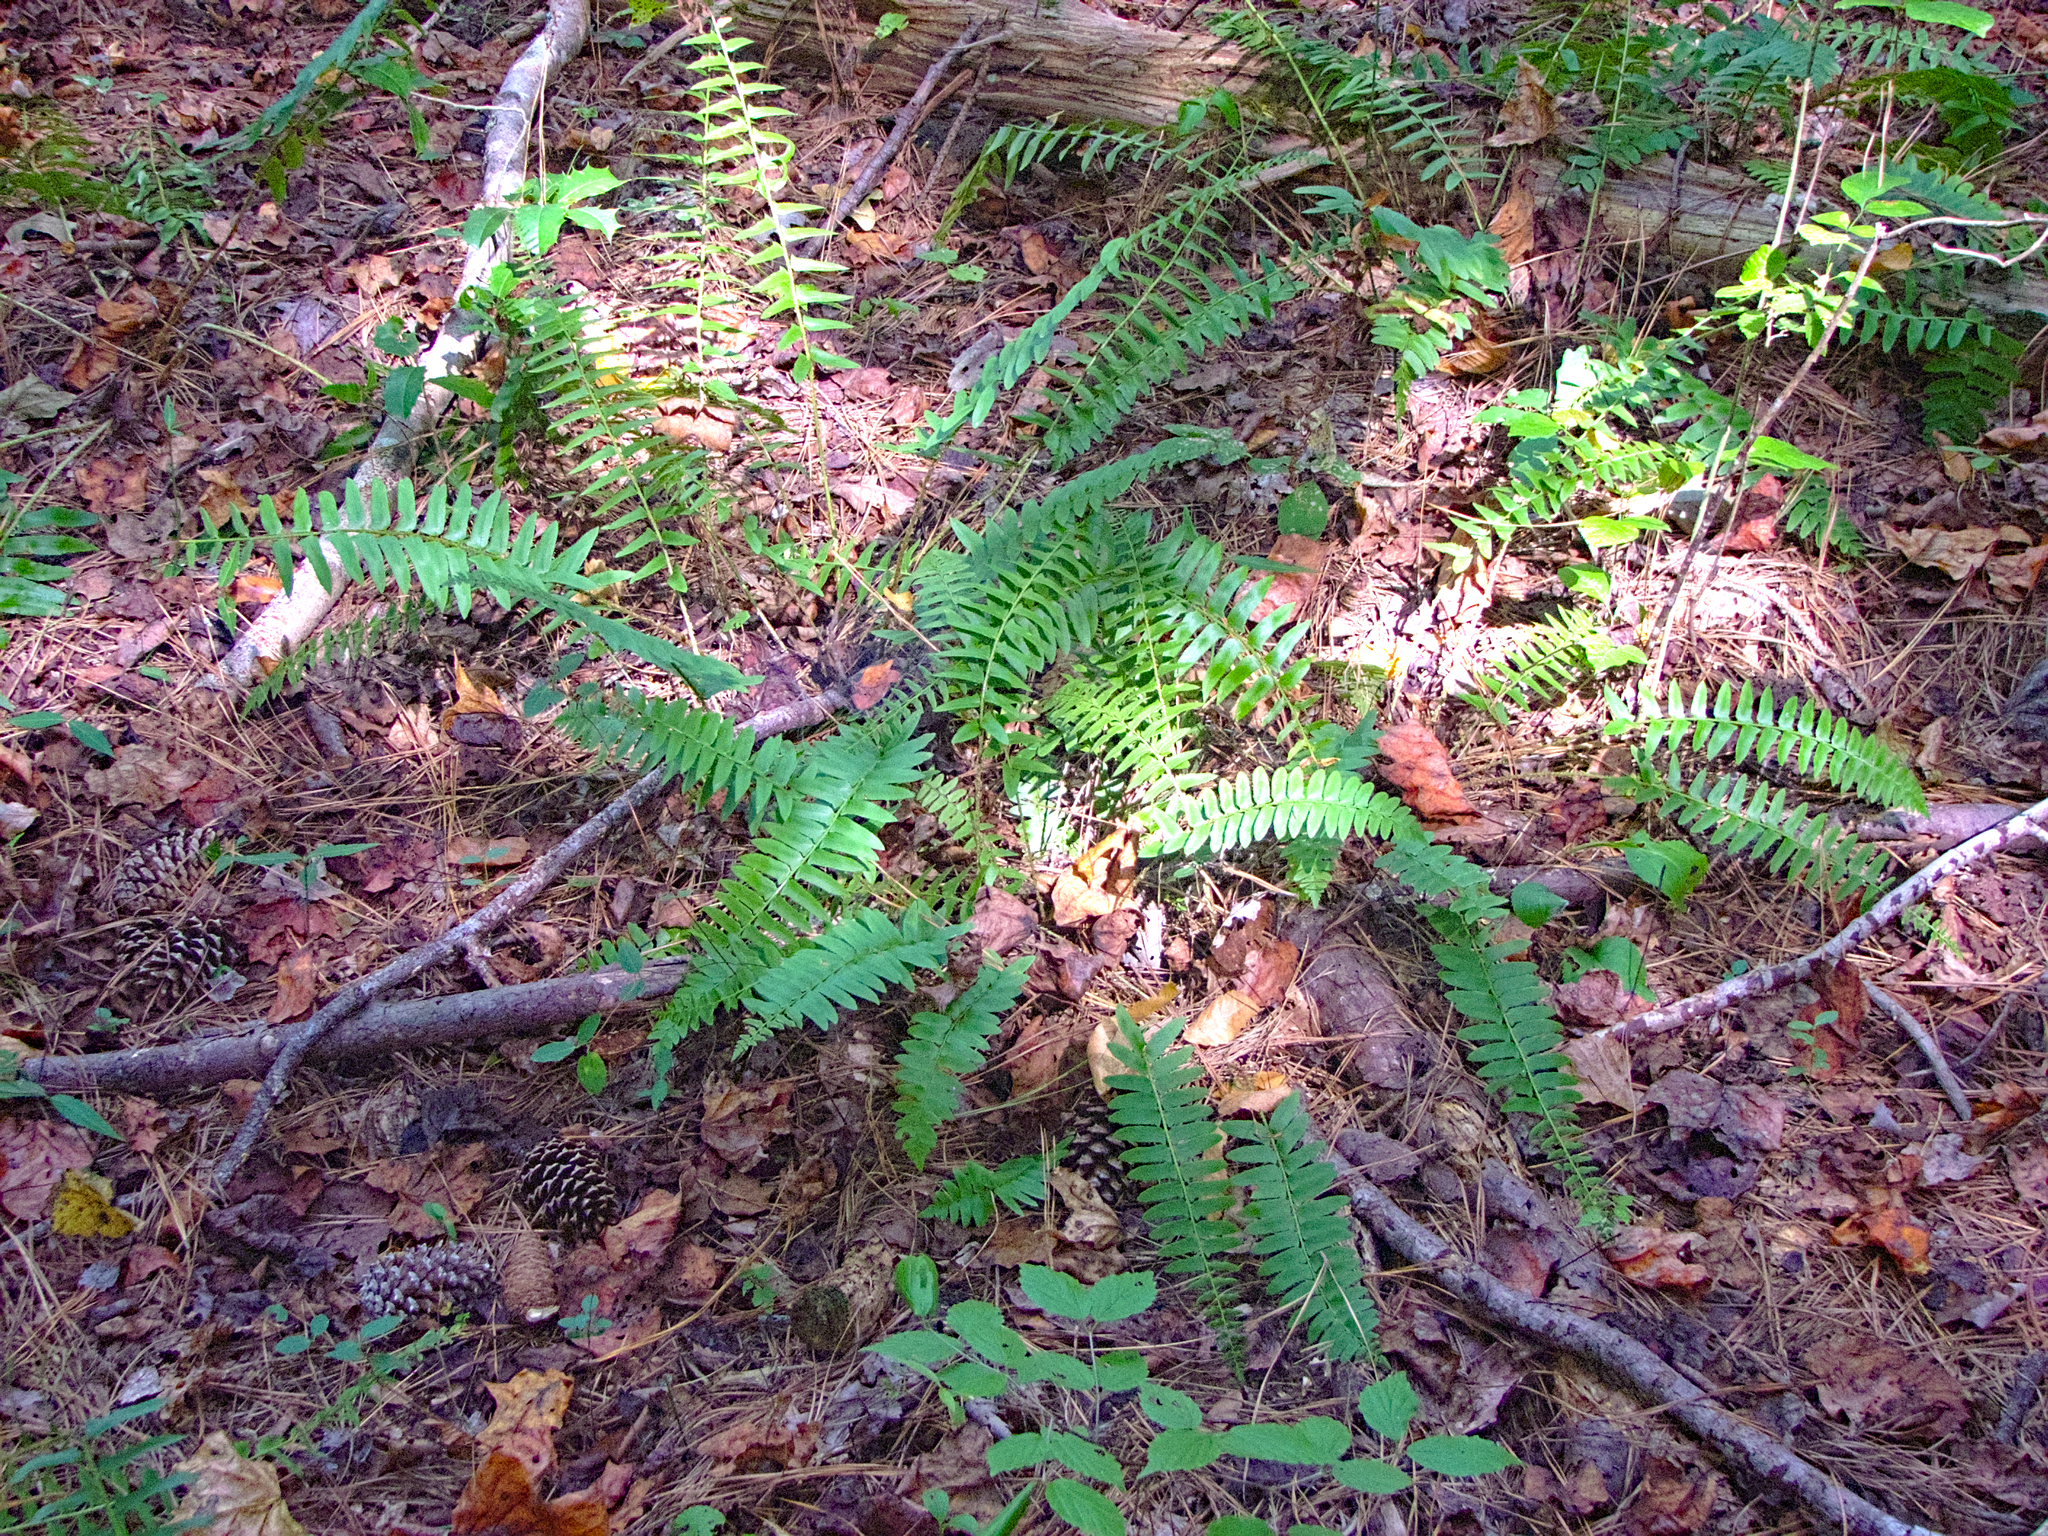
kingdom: Plantae
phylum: Tracheophyta
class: Polypodiopsida
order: Polypodiales
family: Dryopteridaceae
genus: Polystichum
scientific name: Polystichum acrostichoides
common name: Christmas fern
